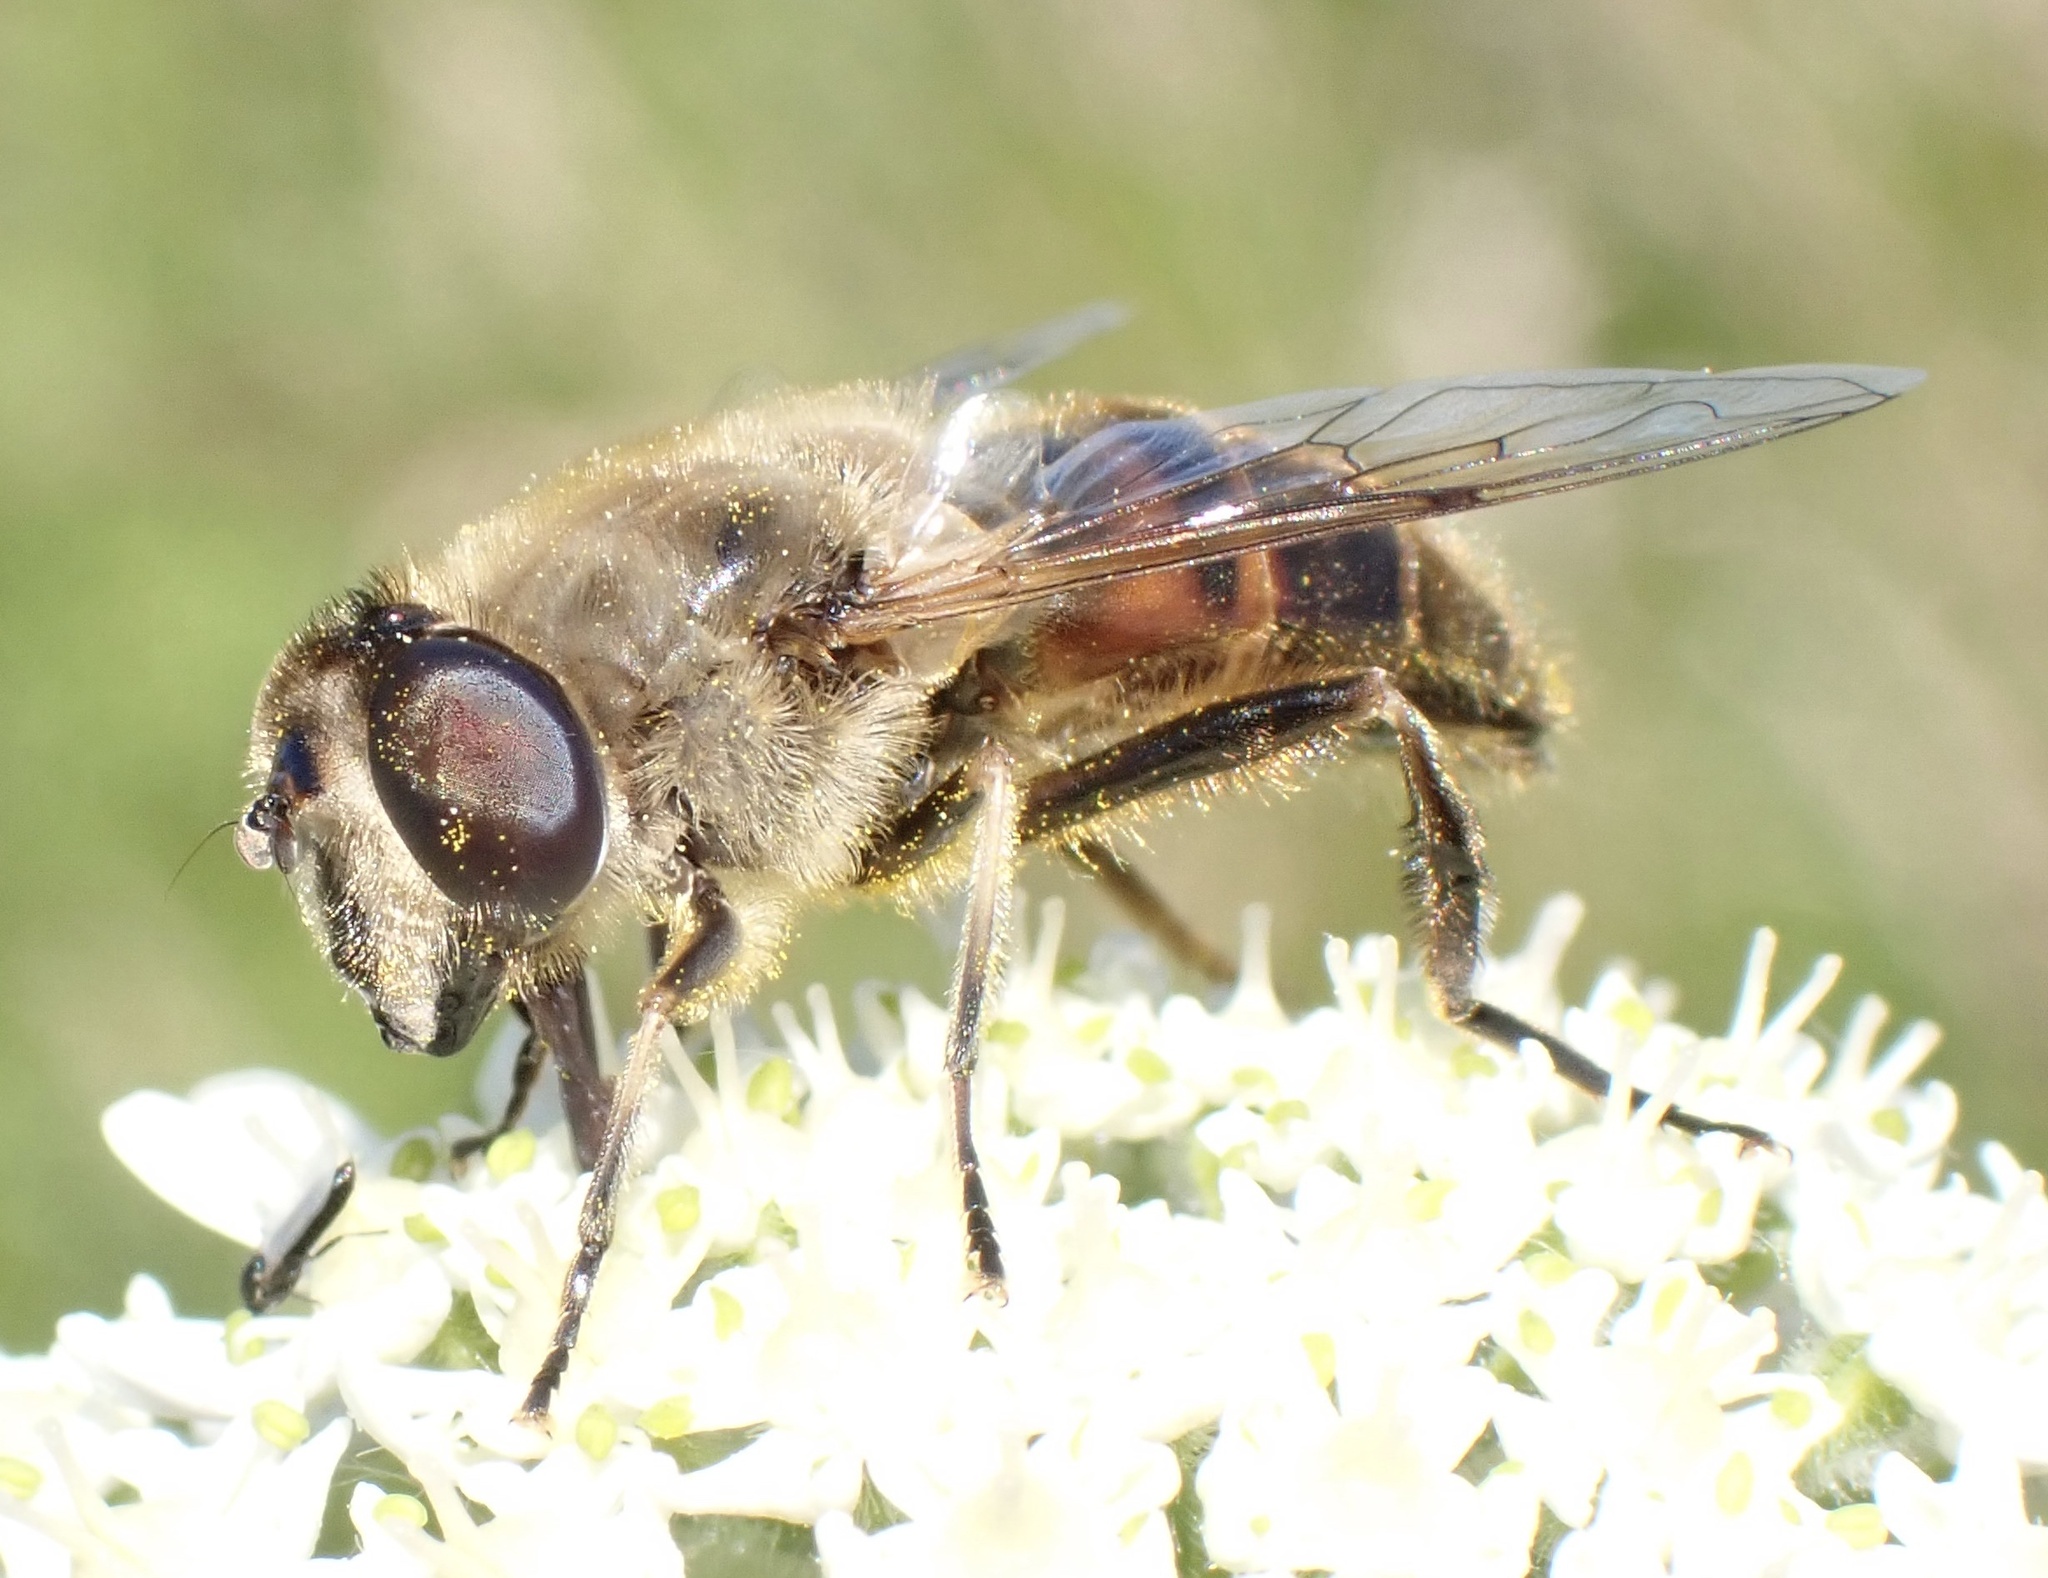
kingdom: Animalia
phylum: Arthropoda
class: Insecta
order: Diptera
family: Syrphidae
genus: Eristalis
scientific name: Eristalis tenax
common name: Drone fly
